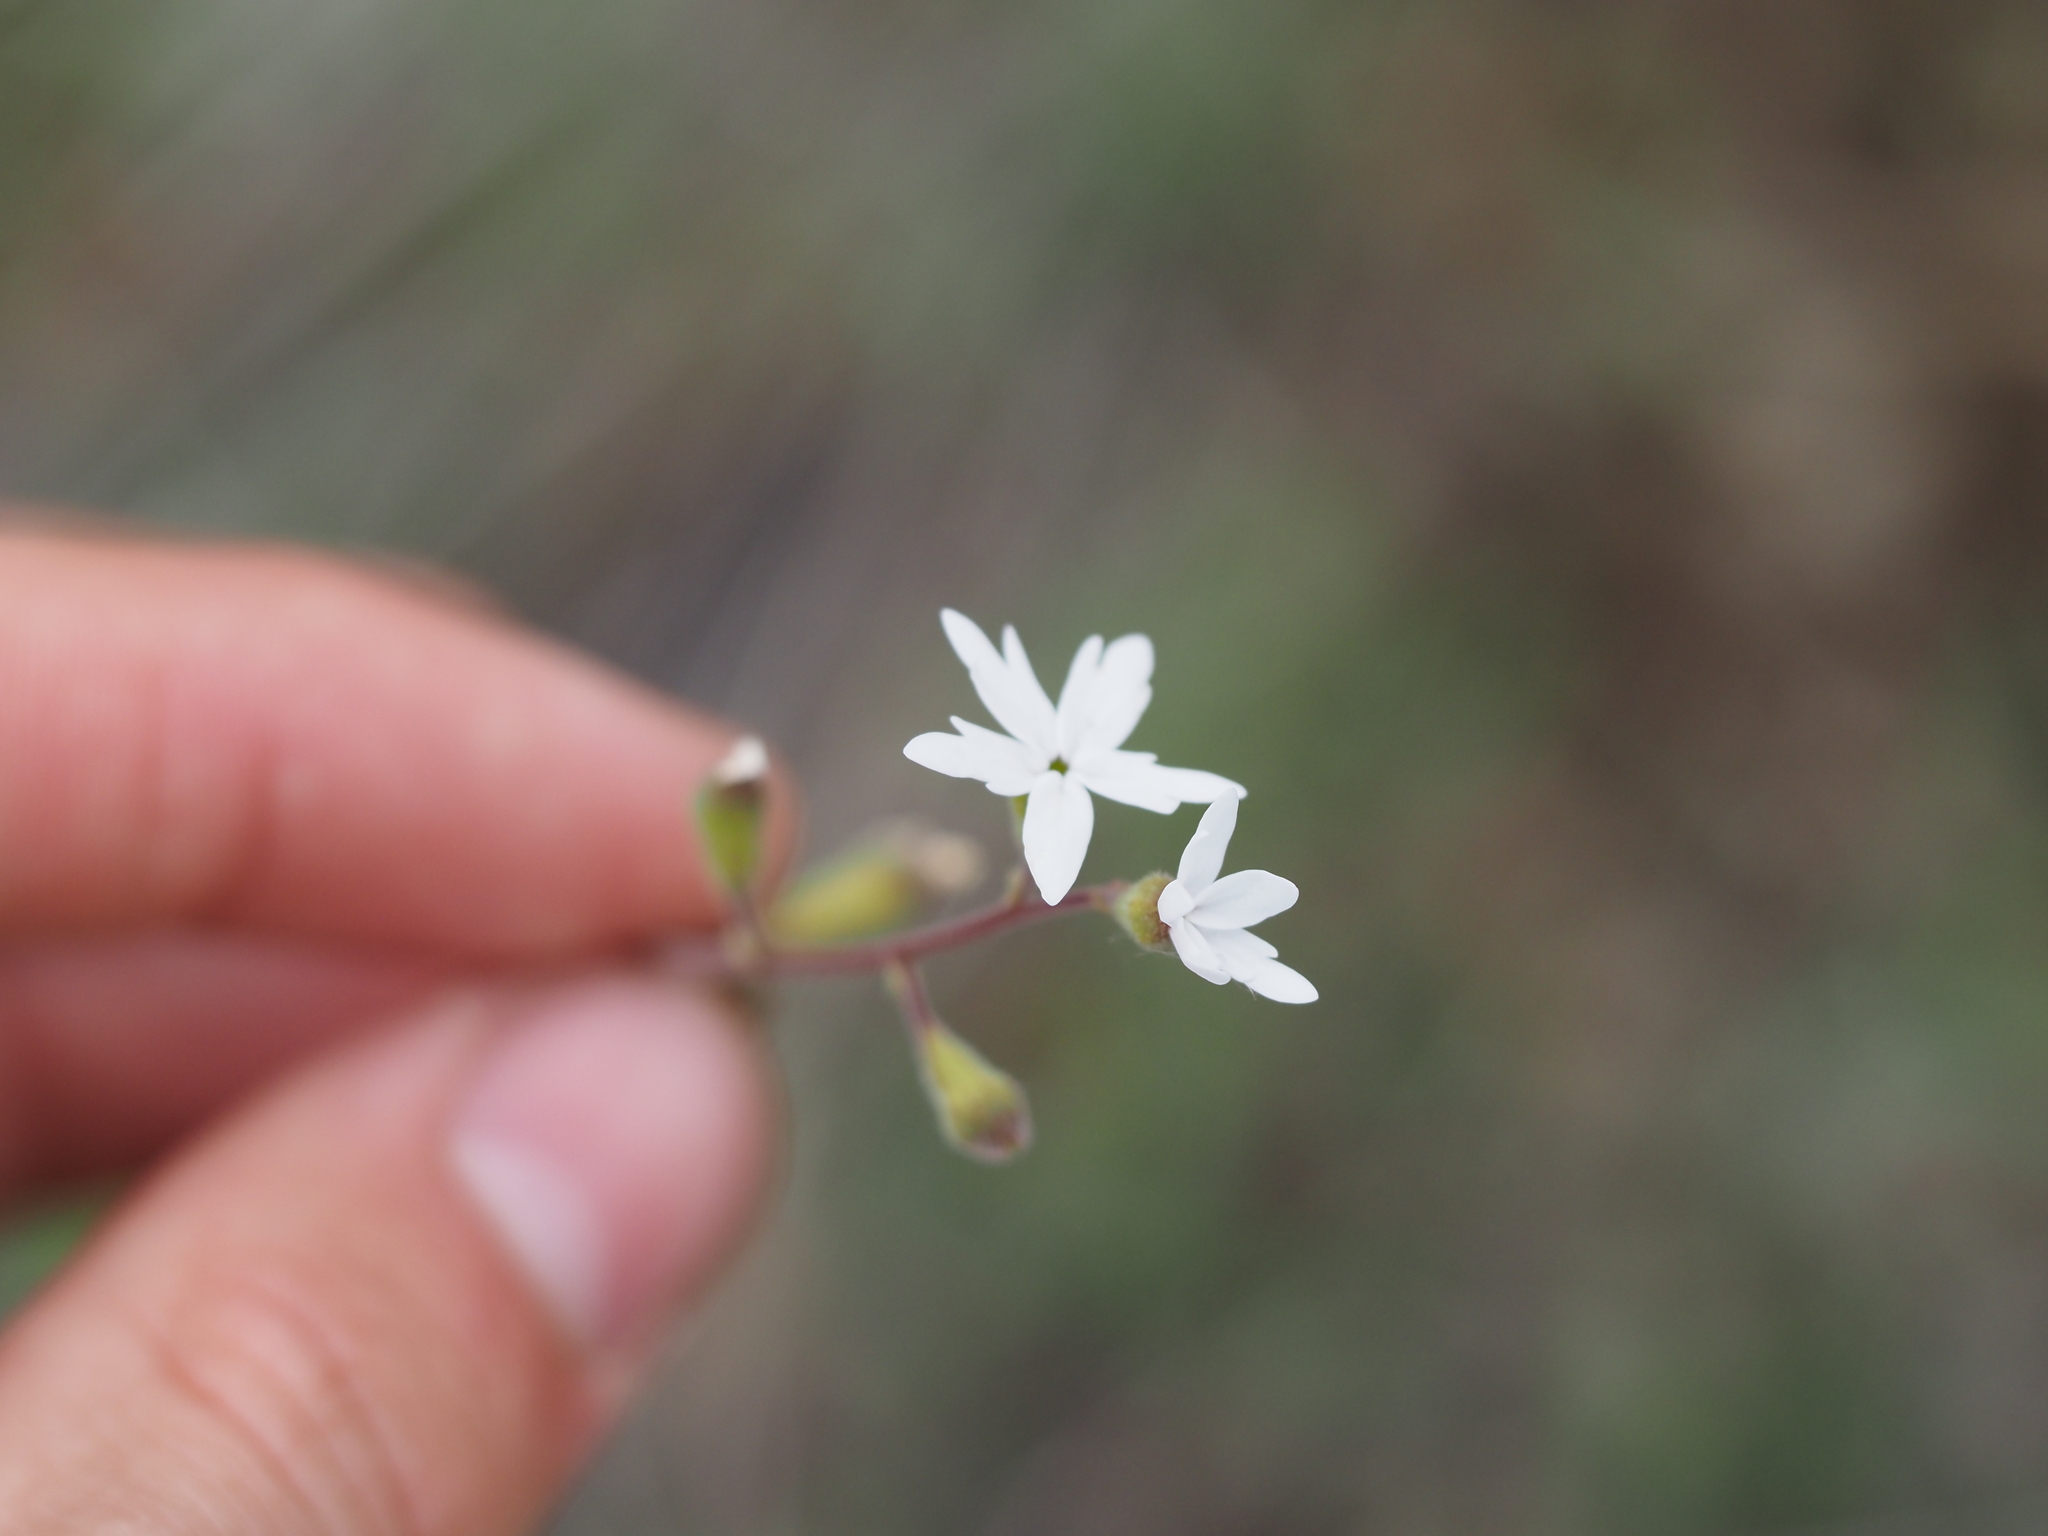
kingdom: Plantae
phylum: Tracheophyta
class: Magnoliopsida
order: Saxifragales
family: Saxifragaceae
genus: Lithophragma
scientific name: Lithophragma parviflorum
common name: Small-flowered fringe-cup
